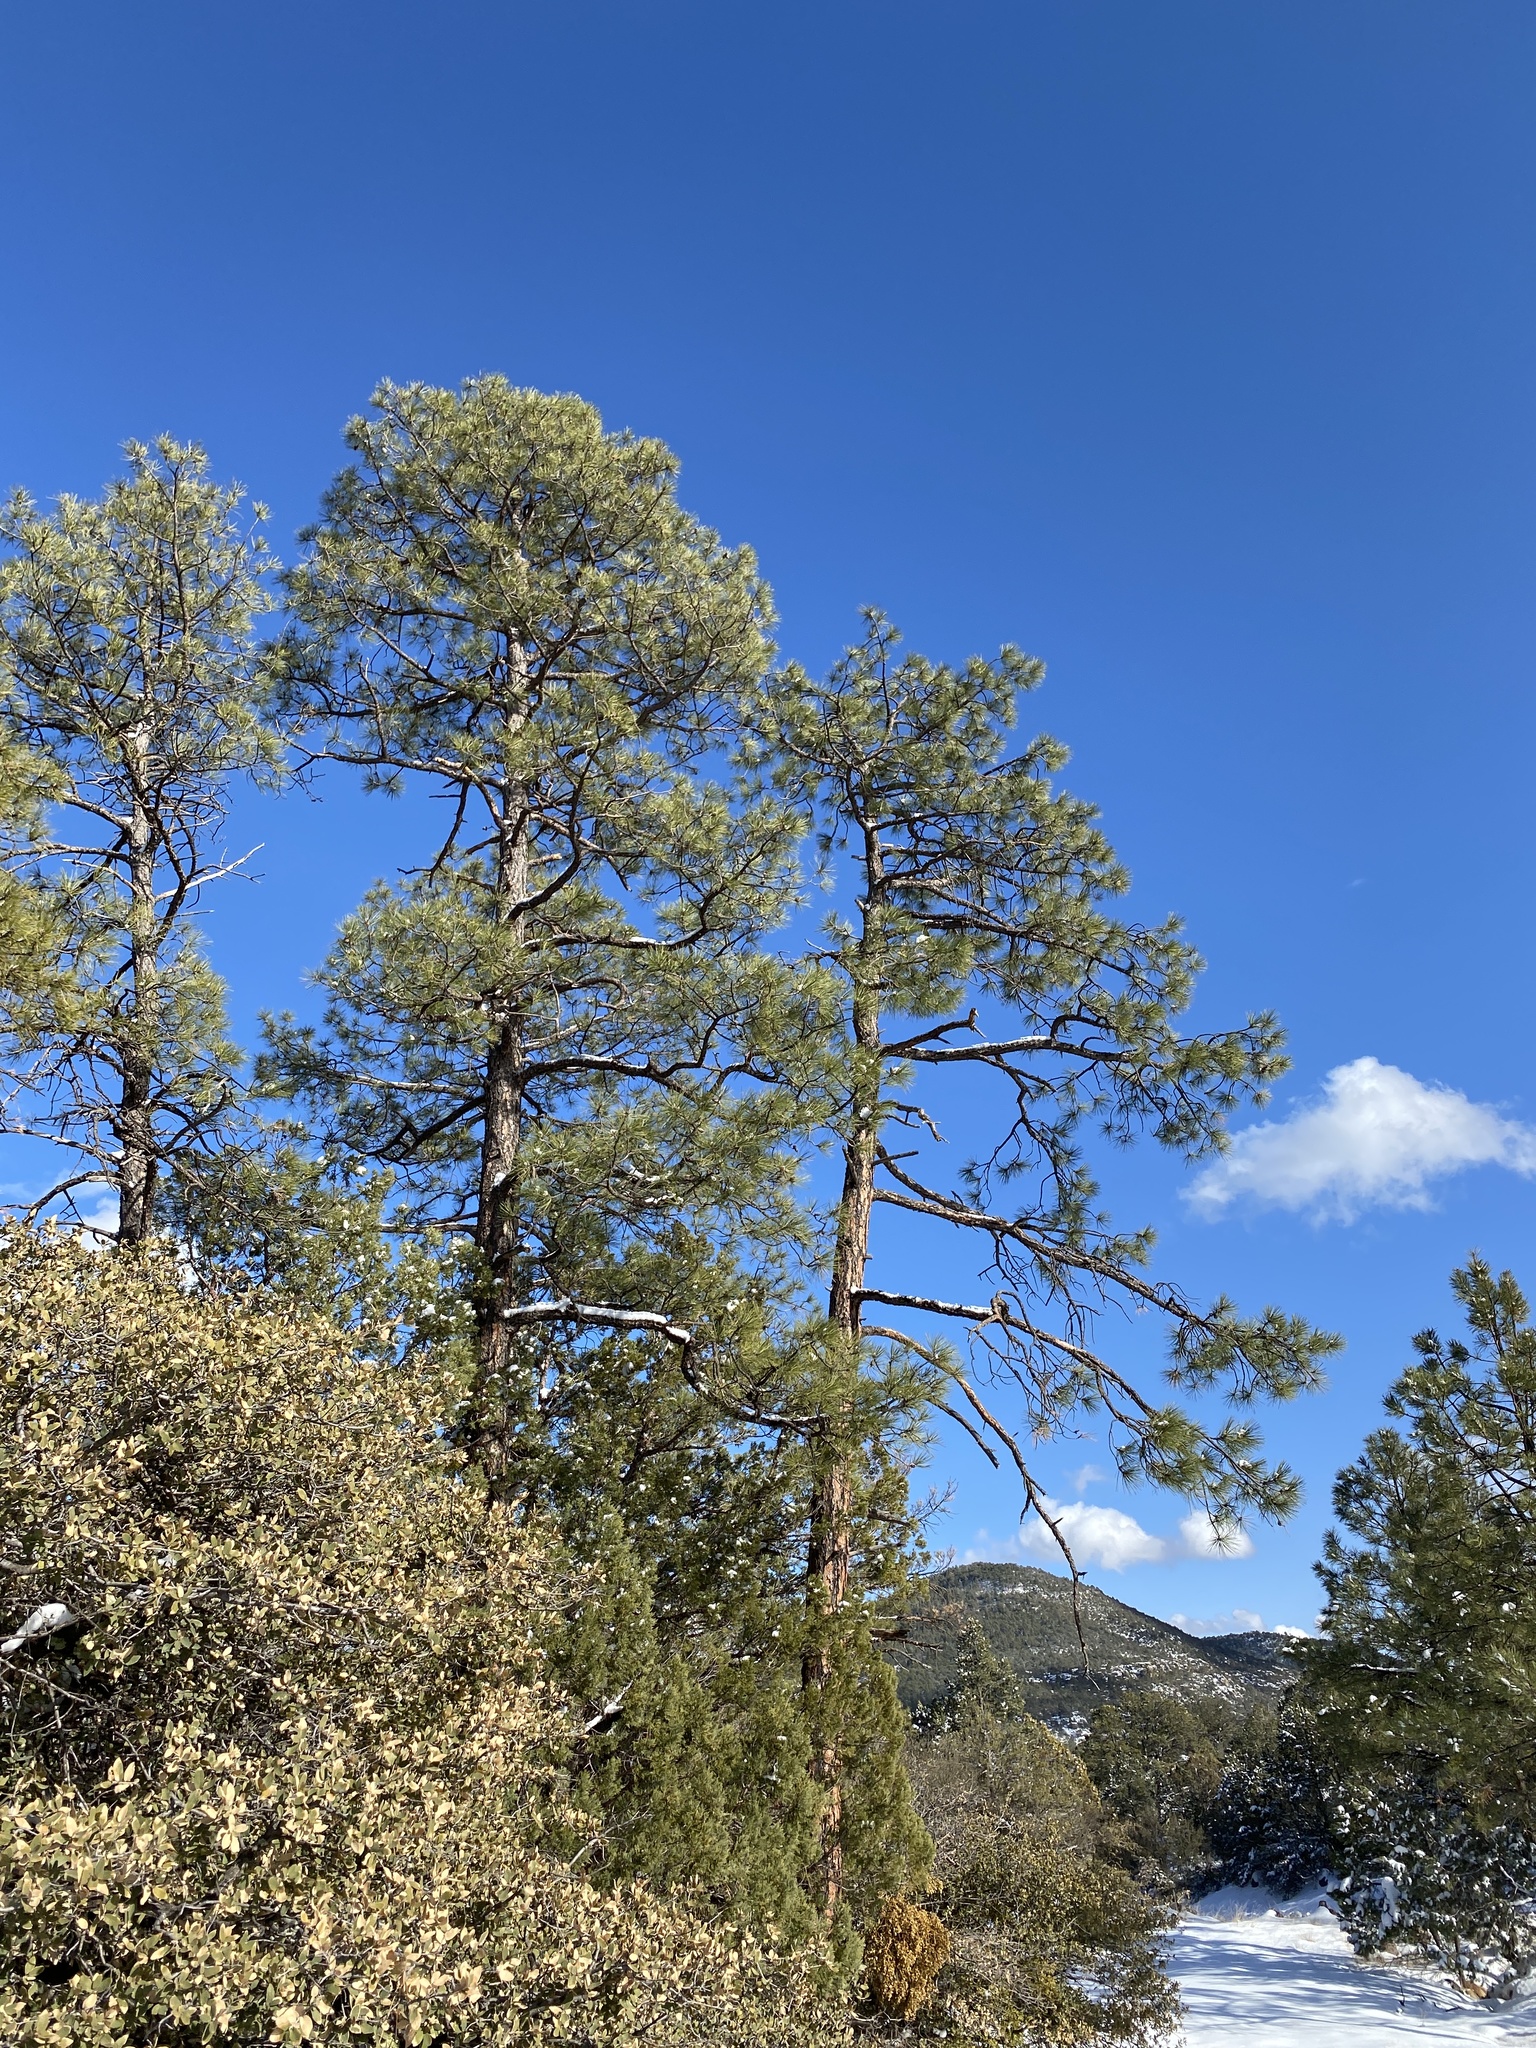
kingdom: Plantae
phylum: Tracheophyta
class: Pinopsida
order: Pinales
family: Pinaceae
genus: Pinus
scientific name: Pinus ponderosa
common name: Western yellow-pine
